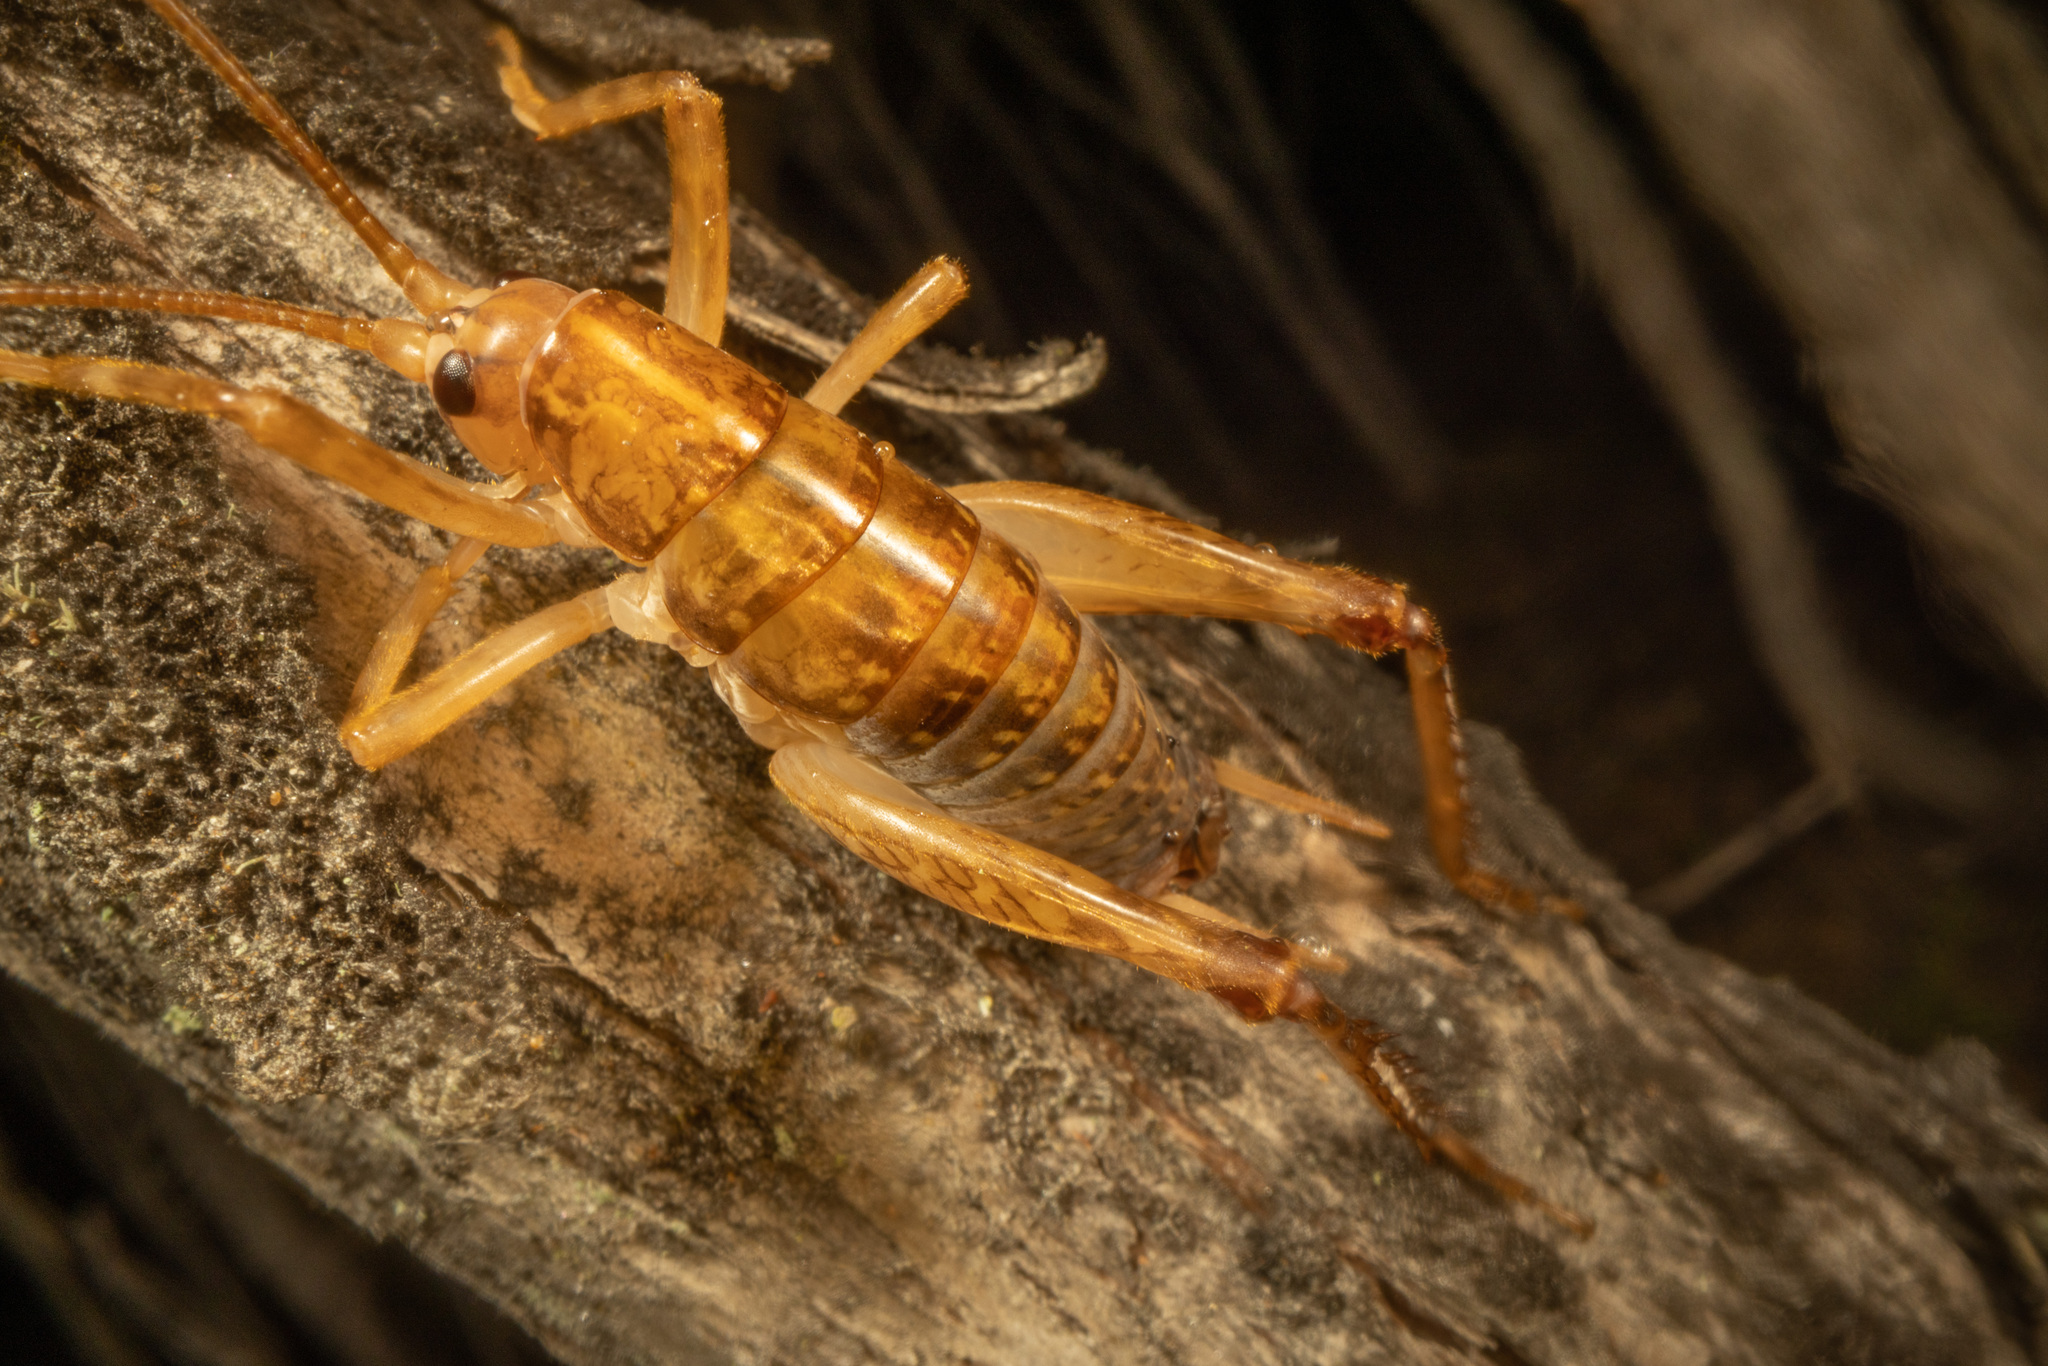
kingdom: Animalia
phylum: Arthropoda
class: Insecta
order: Orthoptera
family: Rhaphidophoridae
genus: Talitropsis
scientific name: Talitropsis sedilloti
